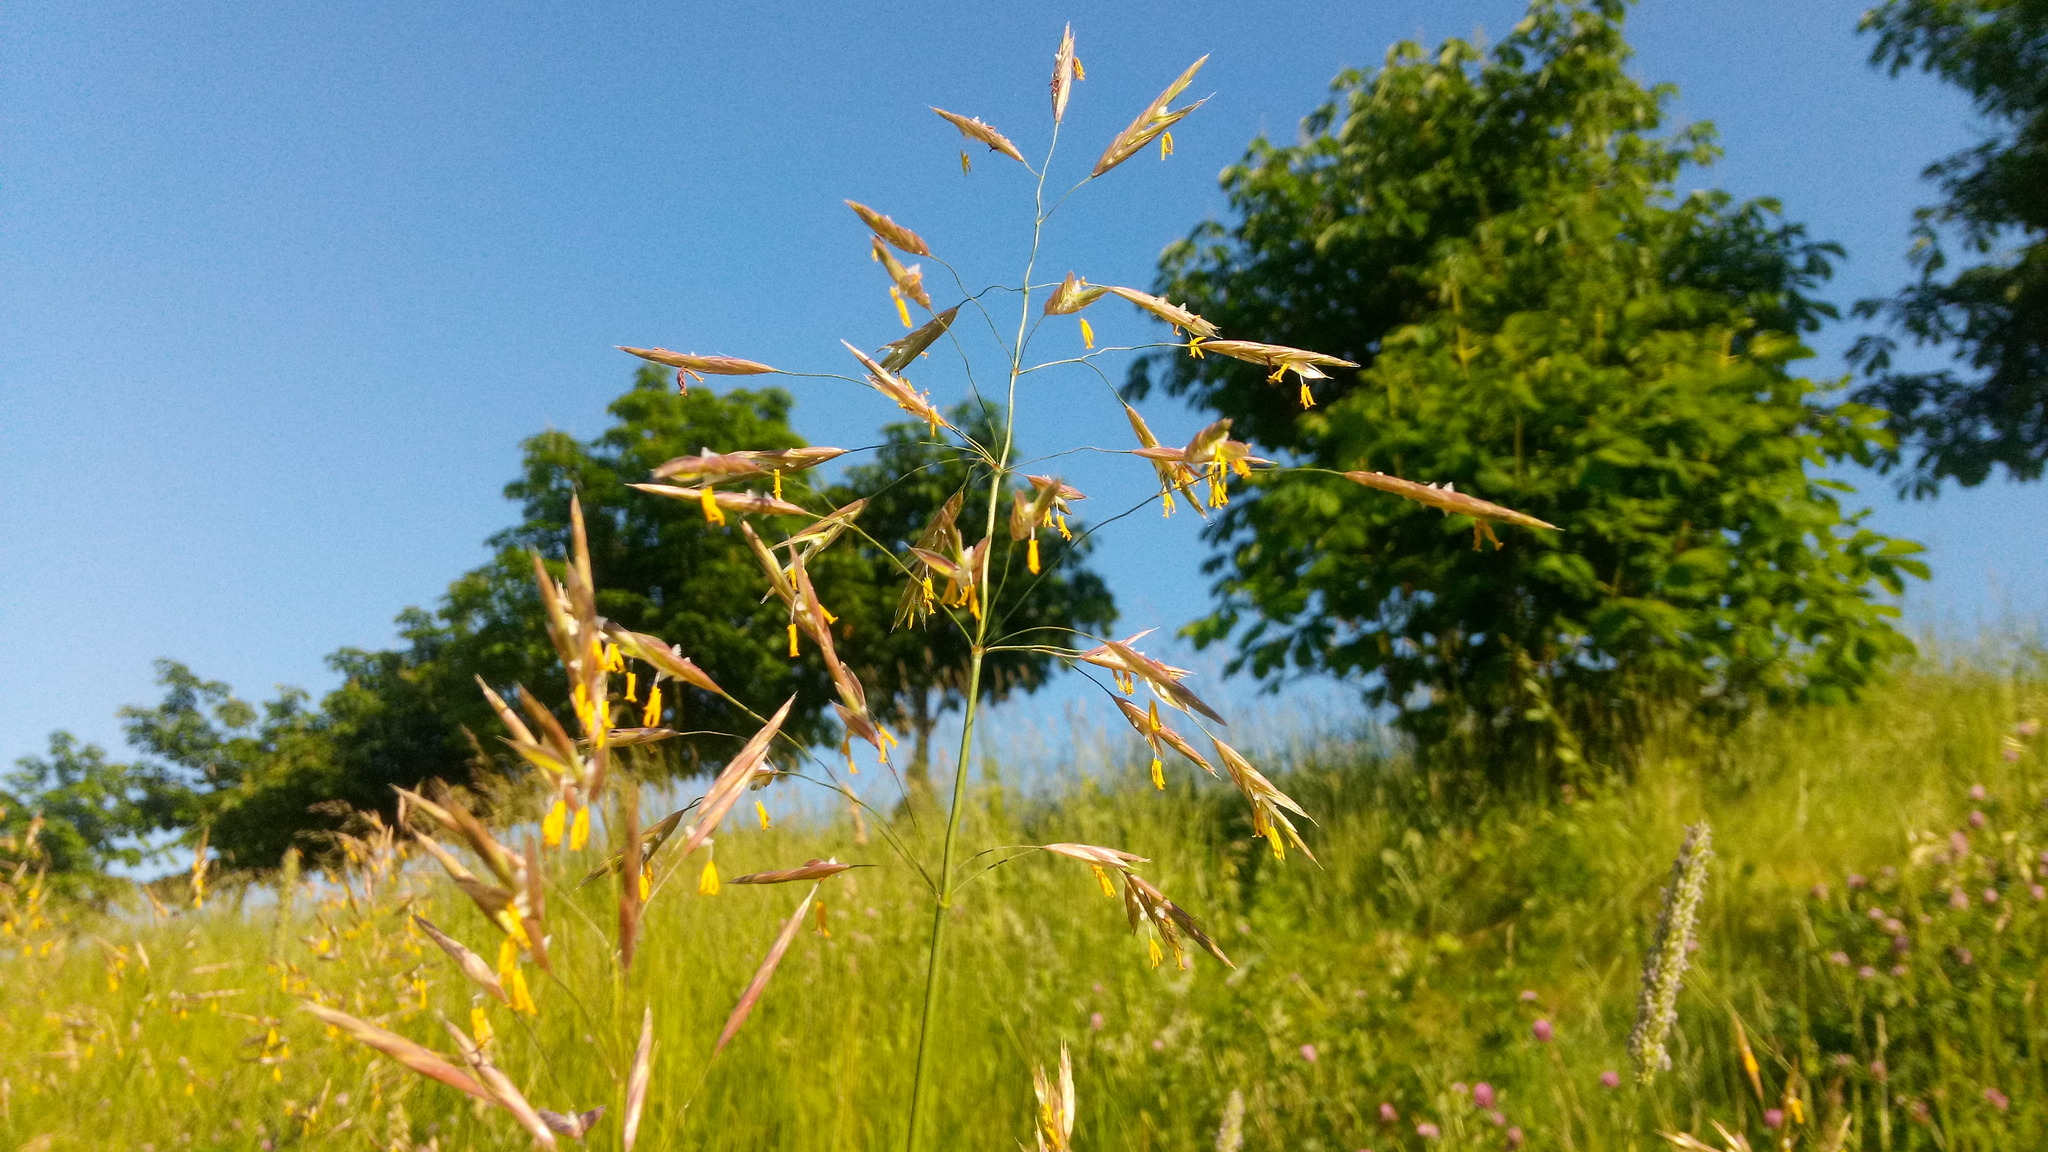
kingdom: Plantae
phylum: Tracheophyta
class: Liliopsida
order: Poales
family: Poaceae
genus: Bromus
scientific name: Bromus inermis
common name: Smooth brome
